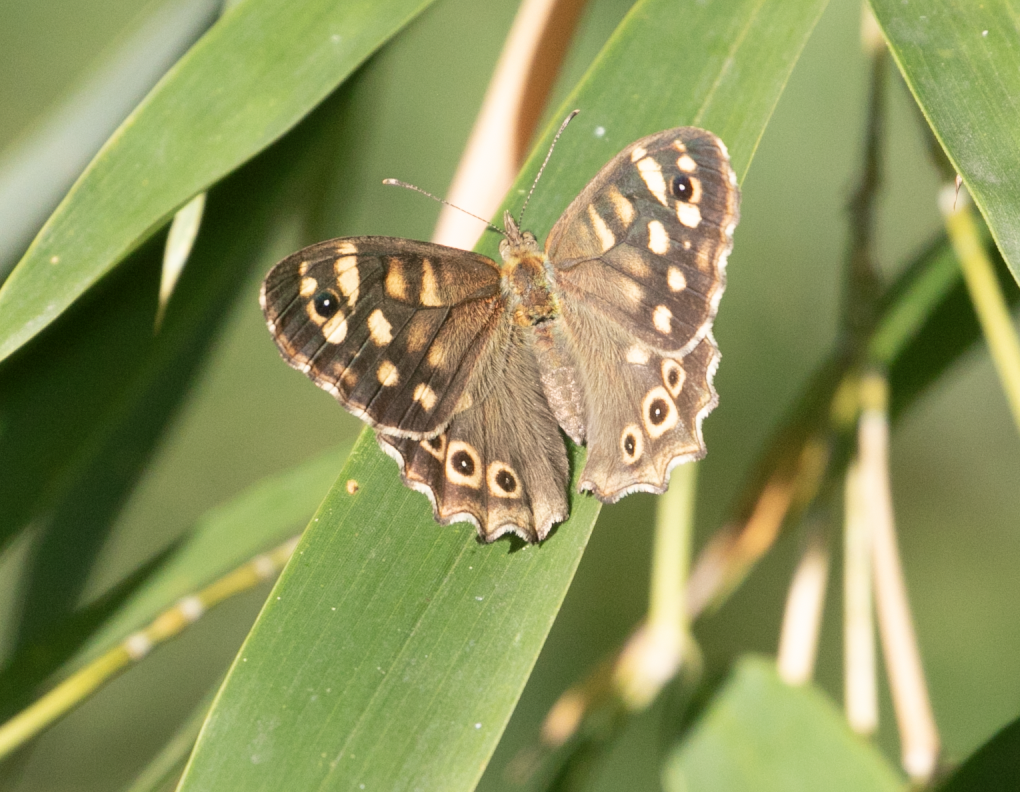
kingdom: Animalia
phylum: Arthropoda
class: Insecta
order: Lepidoptera
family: Nymphalidae
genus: Pararge
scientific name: Pararge aegeria
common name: Speckled wood
